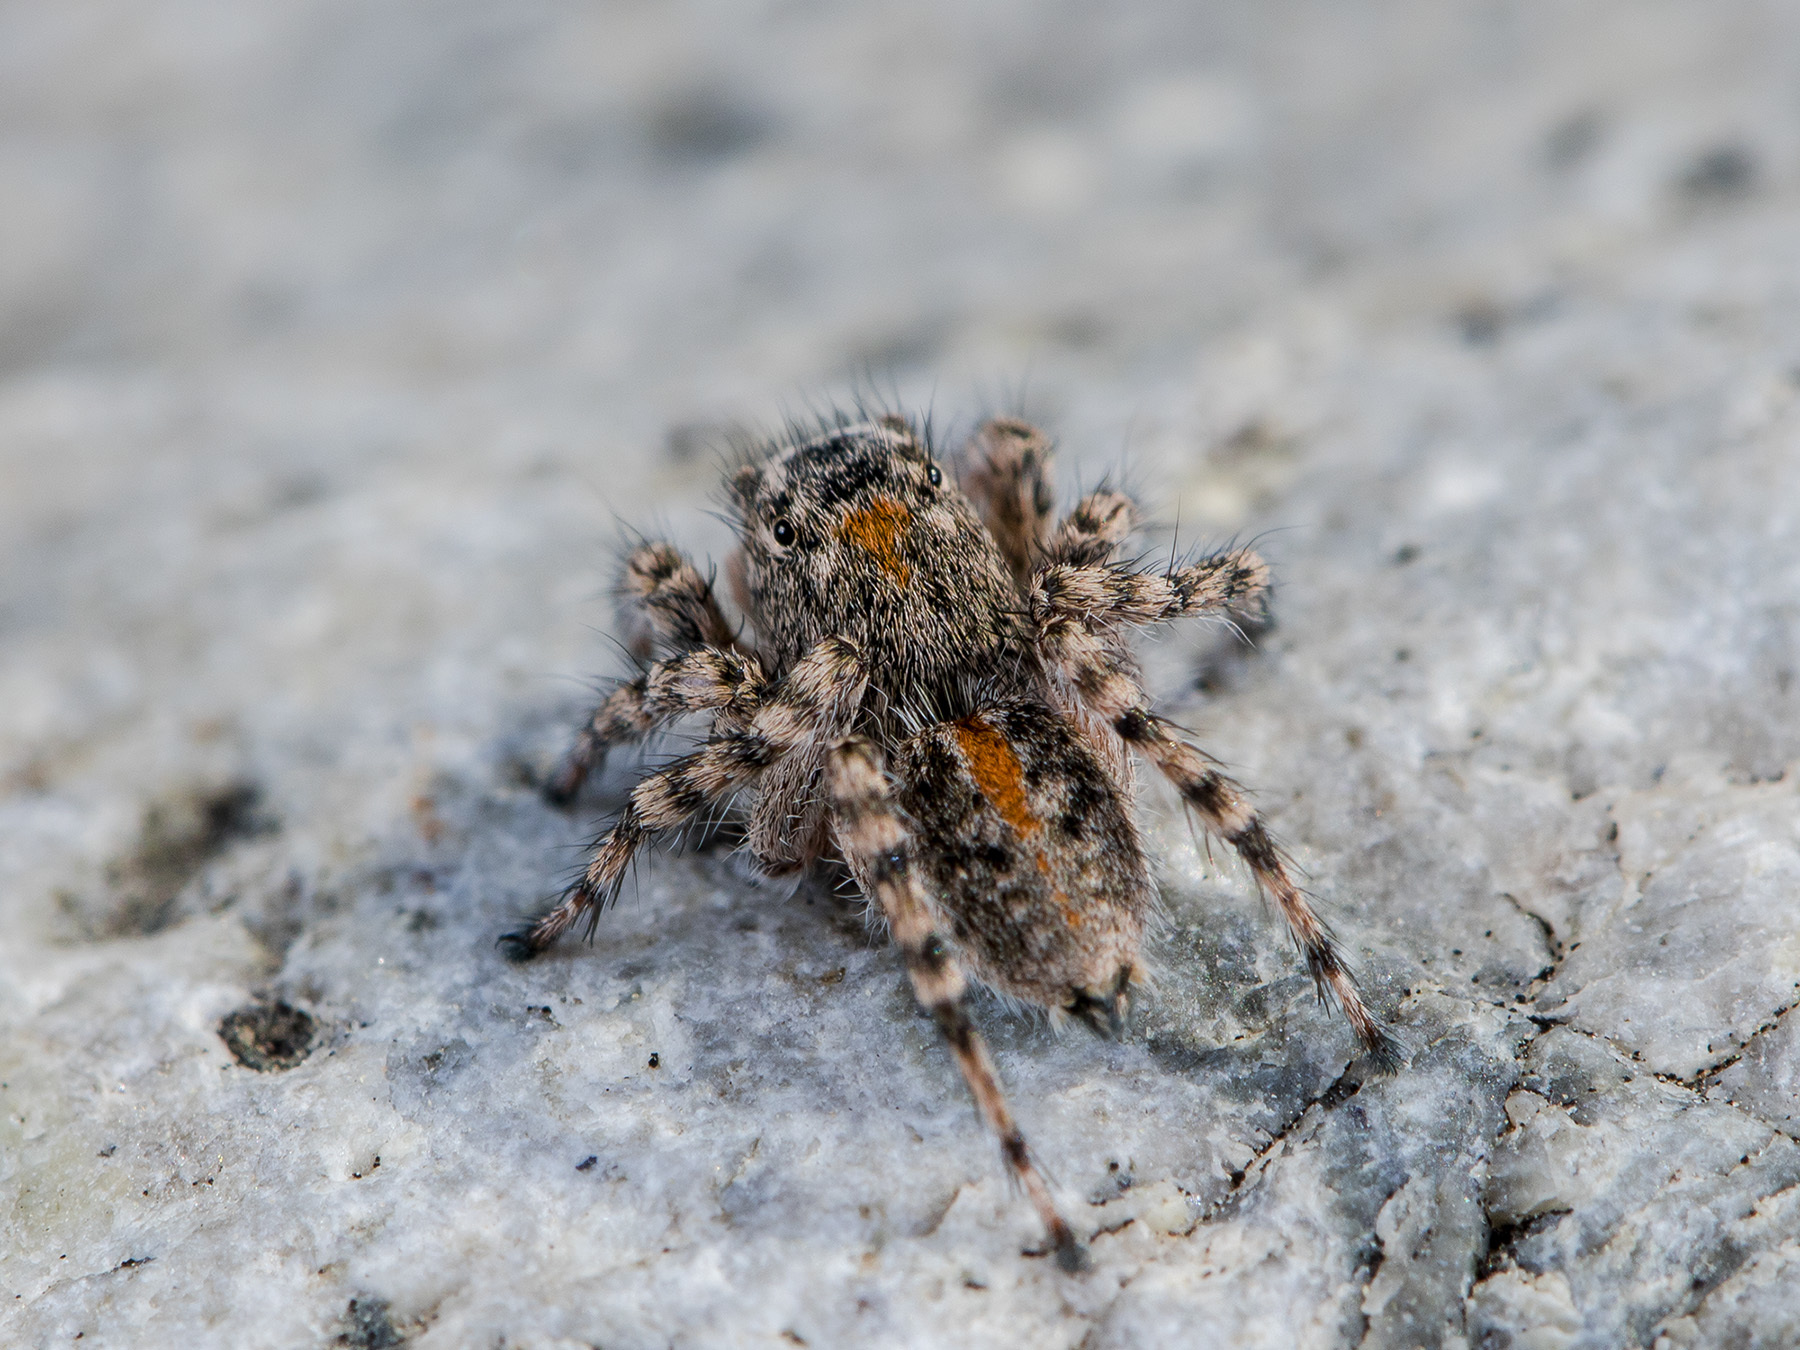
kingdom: Animalia
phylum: Arthropoda
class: Arachnida
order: Araneae
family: Salticidae
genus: Aelurillus
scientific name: Aelurillus dubatolovi
